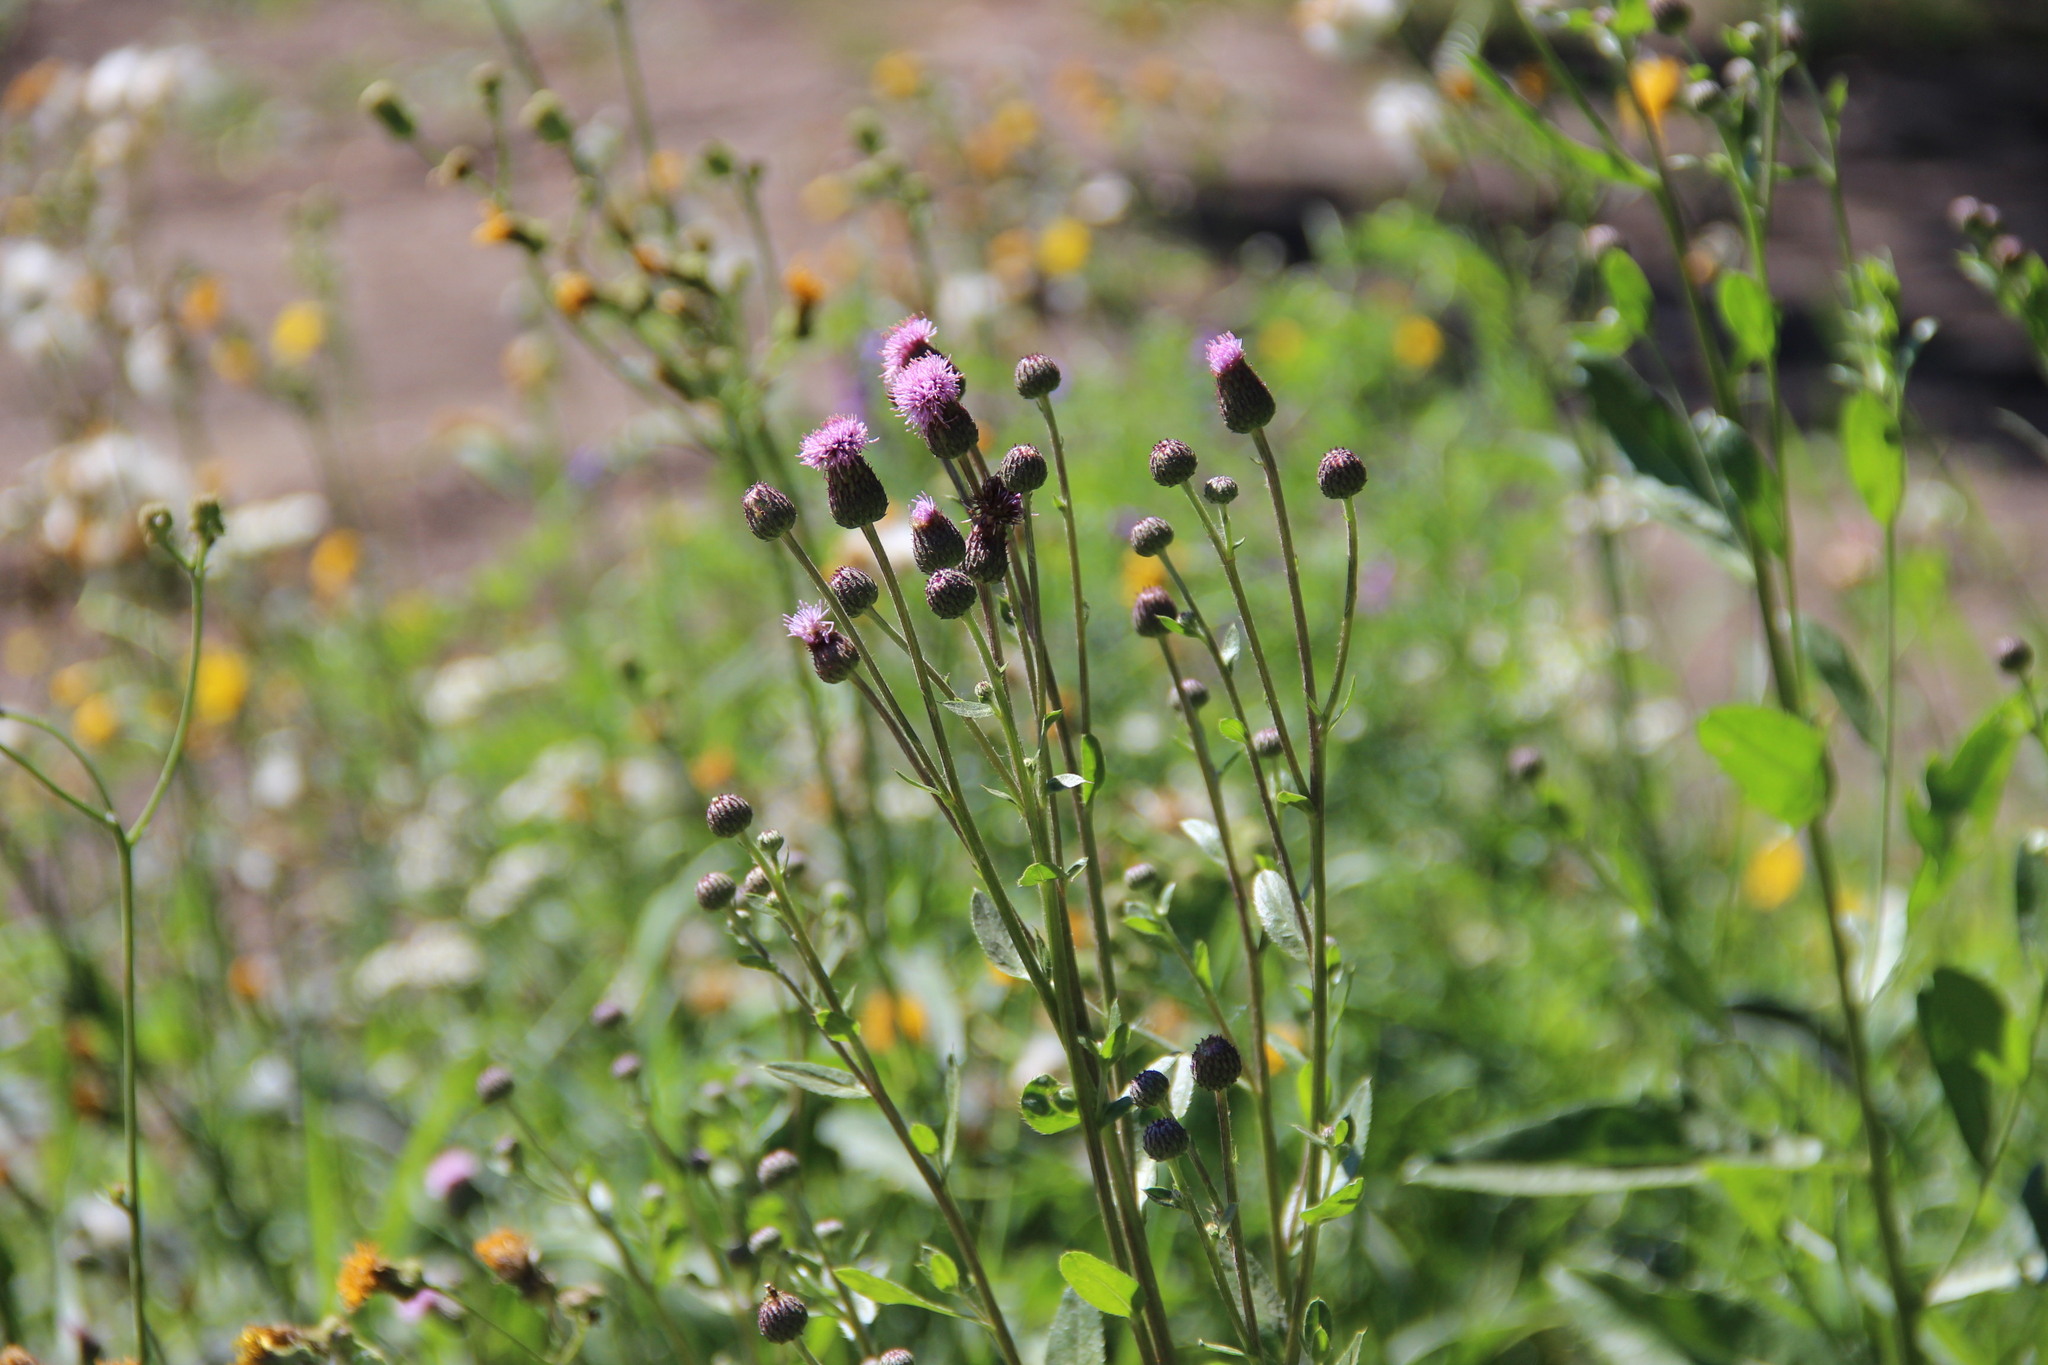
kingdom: Plantae
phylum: Tracheophyta
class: Magnoliopsida
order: Asterales
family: Asteraceae
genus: Cirsium
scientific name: Cirsium arvense
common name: Creeping thistle
